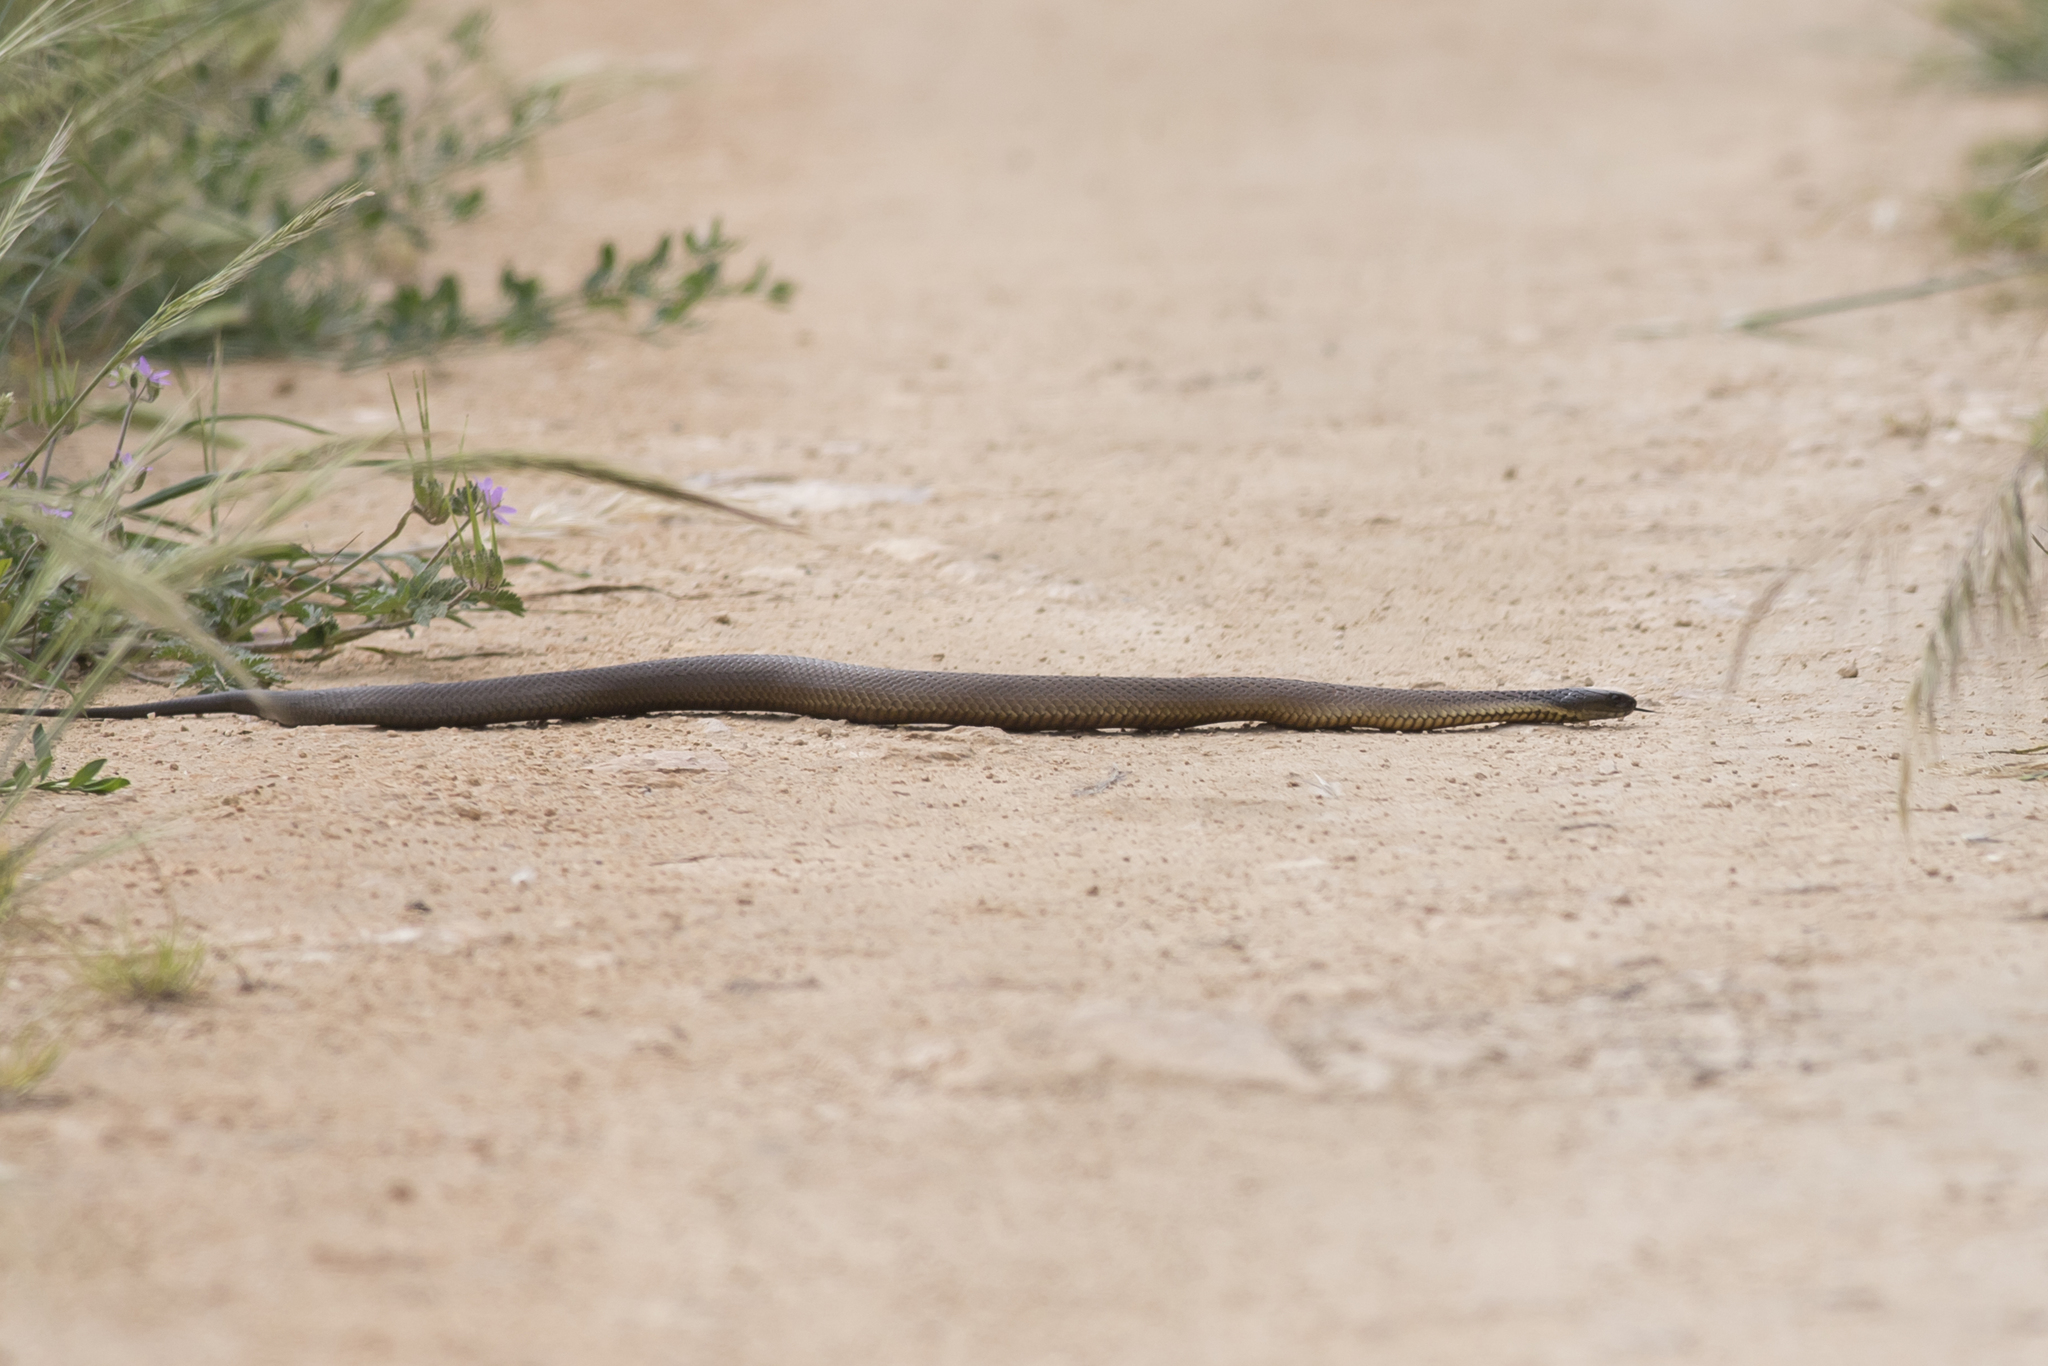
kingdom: Animalia
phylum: Chordata
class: Squamata
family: Elapidae
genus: Notechis
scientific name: Notechis scutatus
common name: Mainland tiger snake
